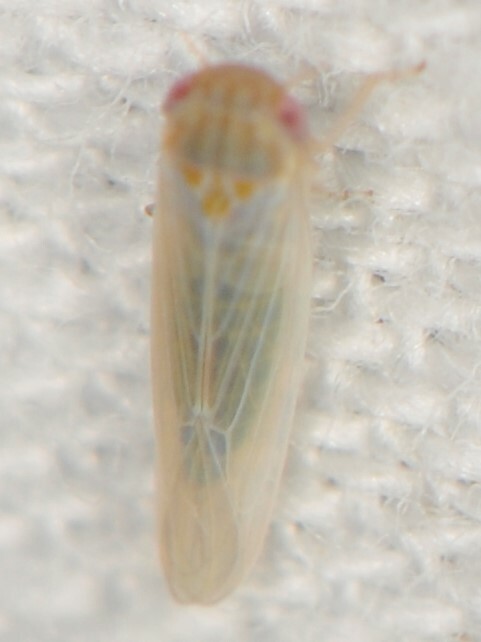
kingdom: Animalia
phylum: Arthropoda
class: Insecta
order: Hemiptera
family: Cicadellidae
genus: Balclutha
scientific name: Balclutha
